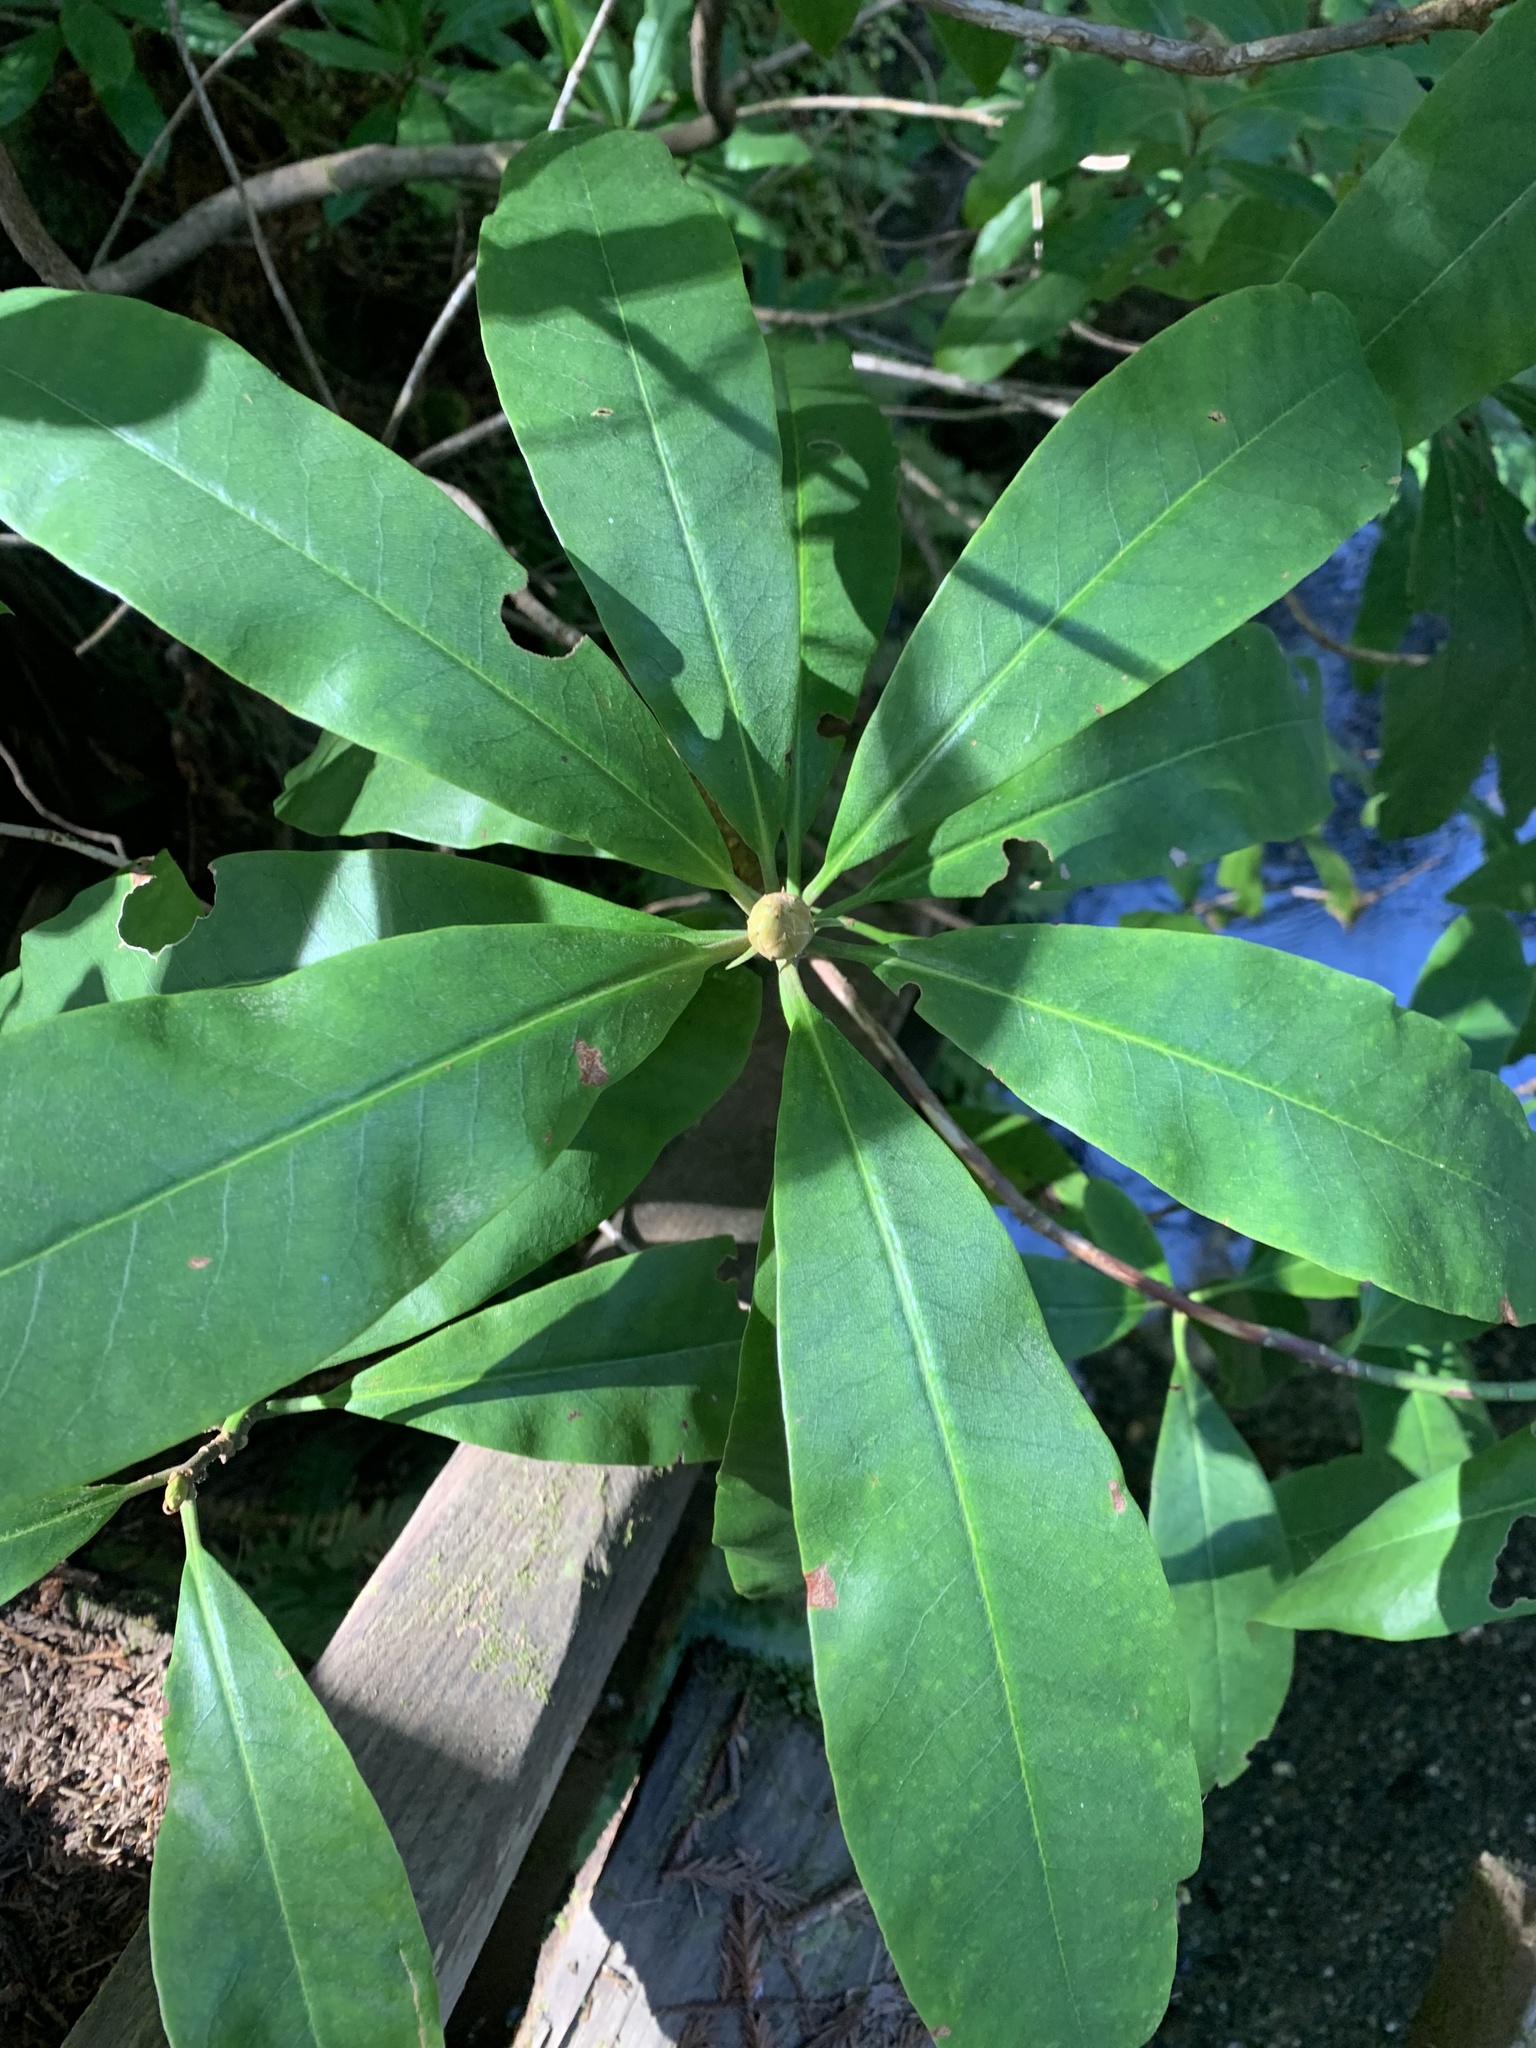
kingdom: Plantae
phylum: Tracheophyta
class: Magnoliopsida
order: Ericales
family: Ericaceae
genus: Rhododendron
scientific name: Rhododendron macrophyllum
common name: California rose bay
